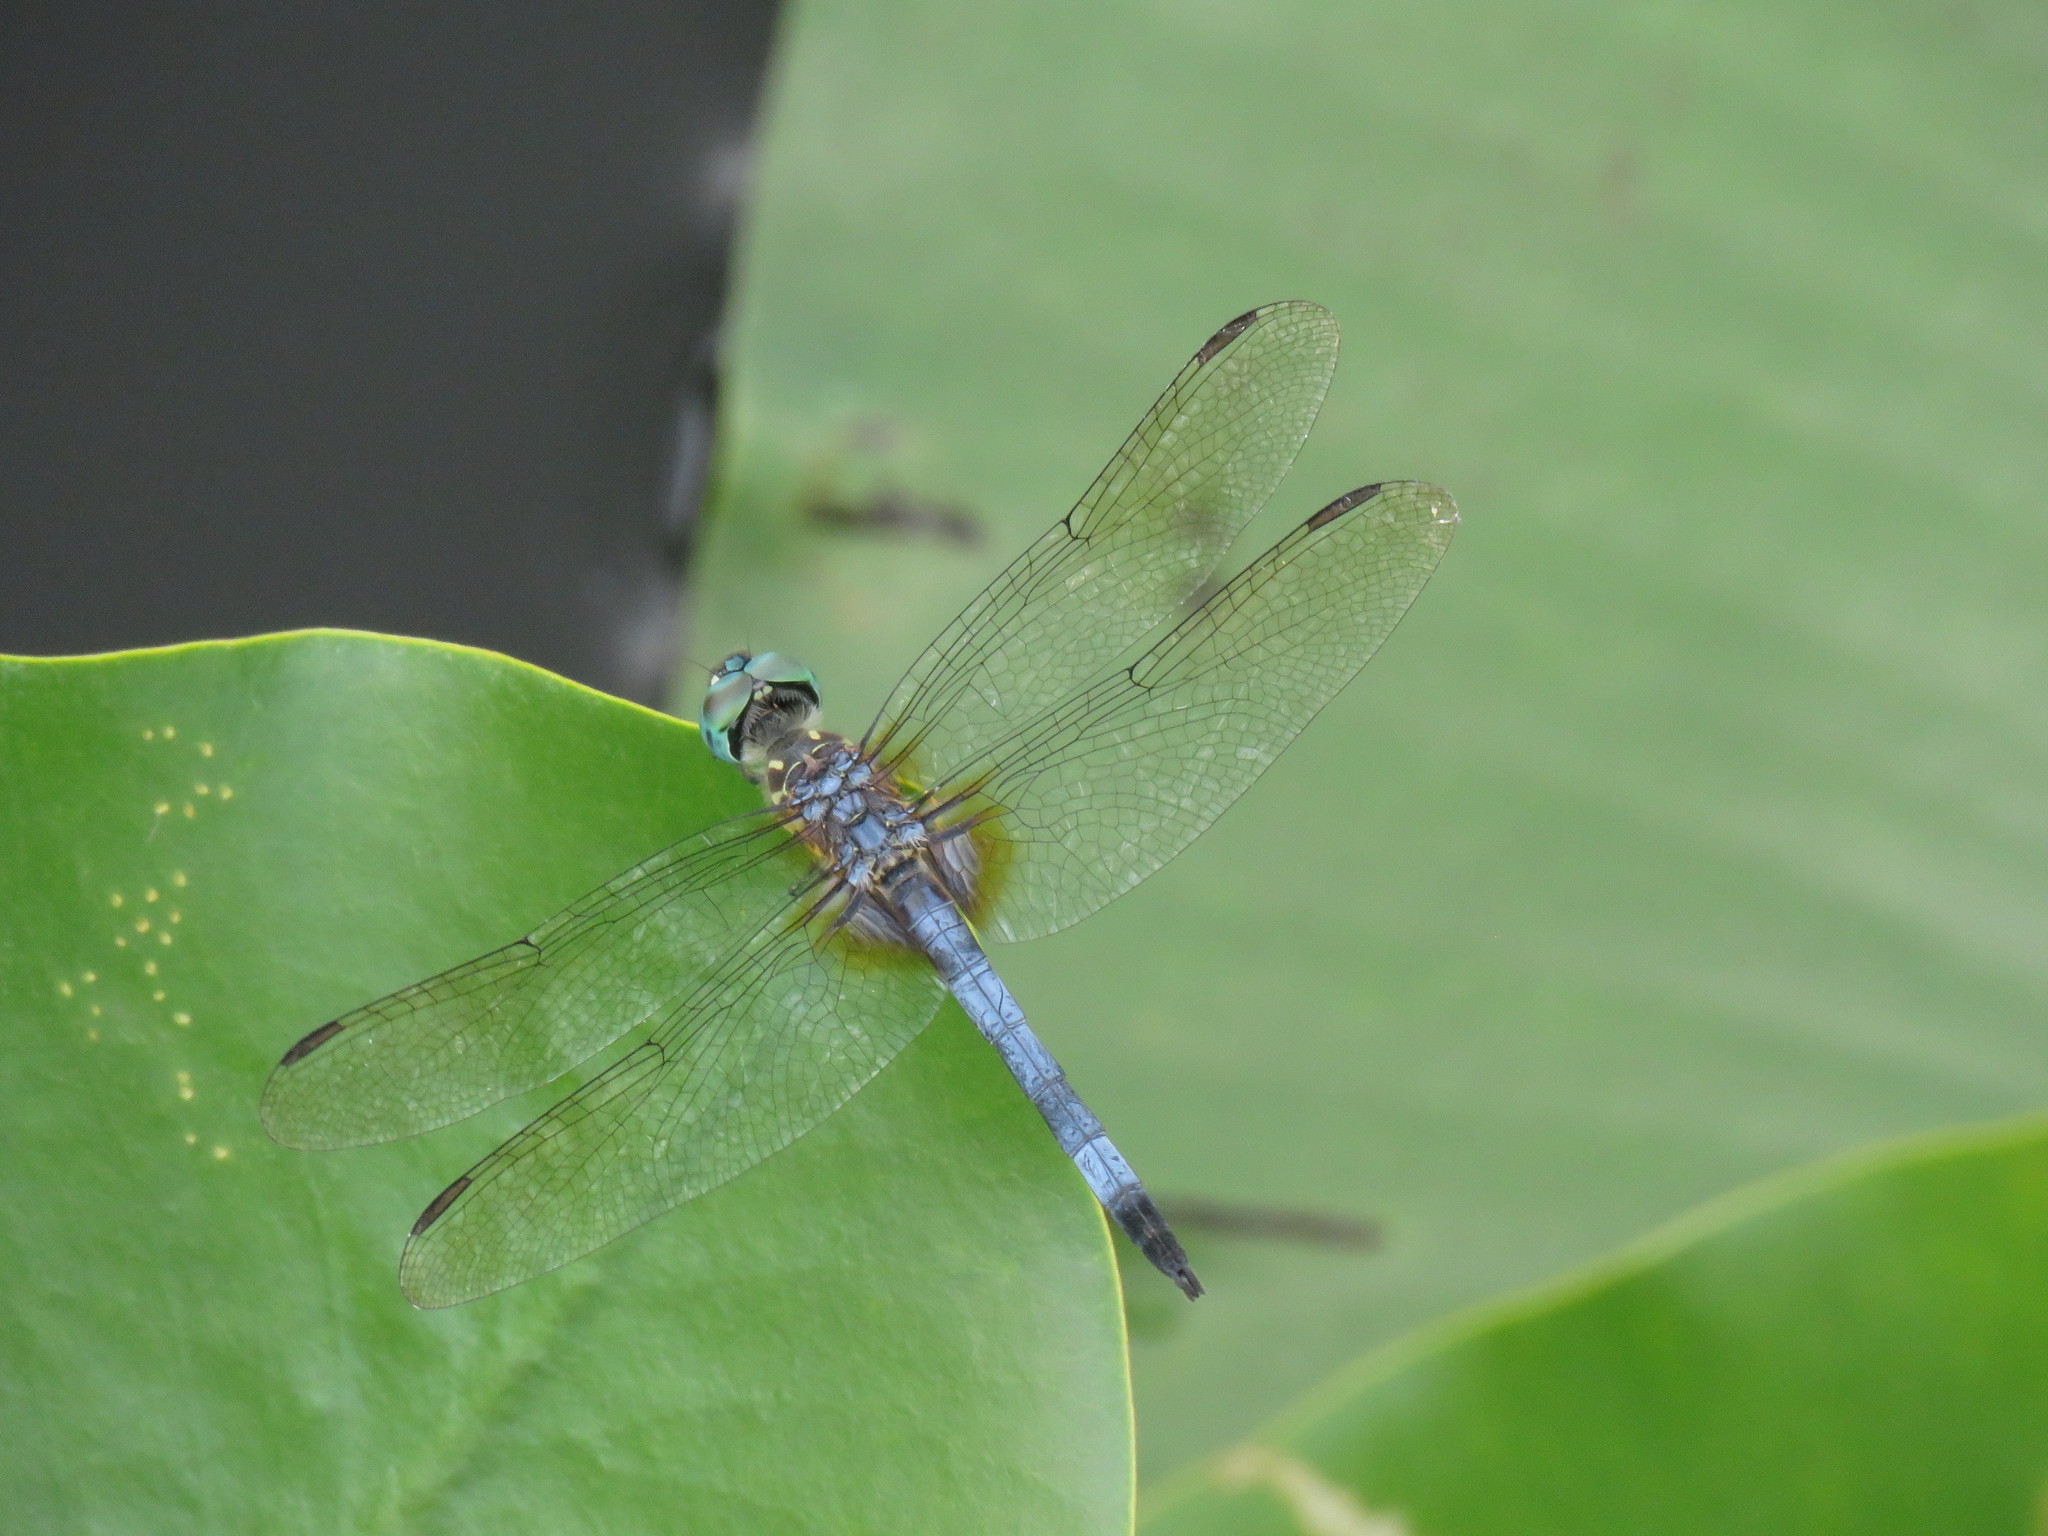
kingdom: Animalia
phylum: Arthropoda
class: Insecta
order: Odonata
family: Libellulidae
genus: Pachydiplax
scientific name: Pachydiplax longipennis
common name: Blue dasher
